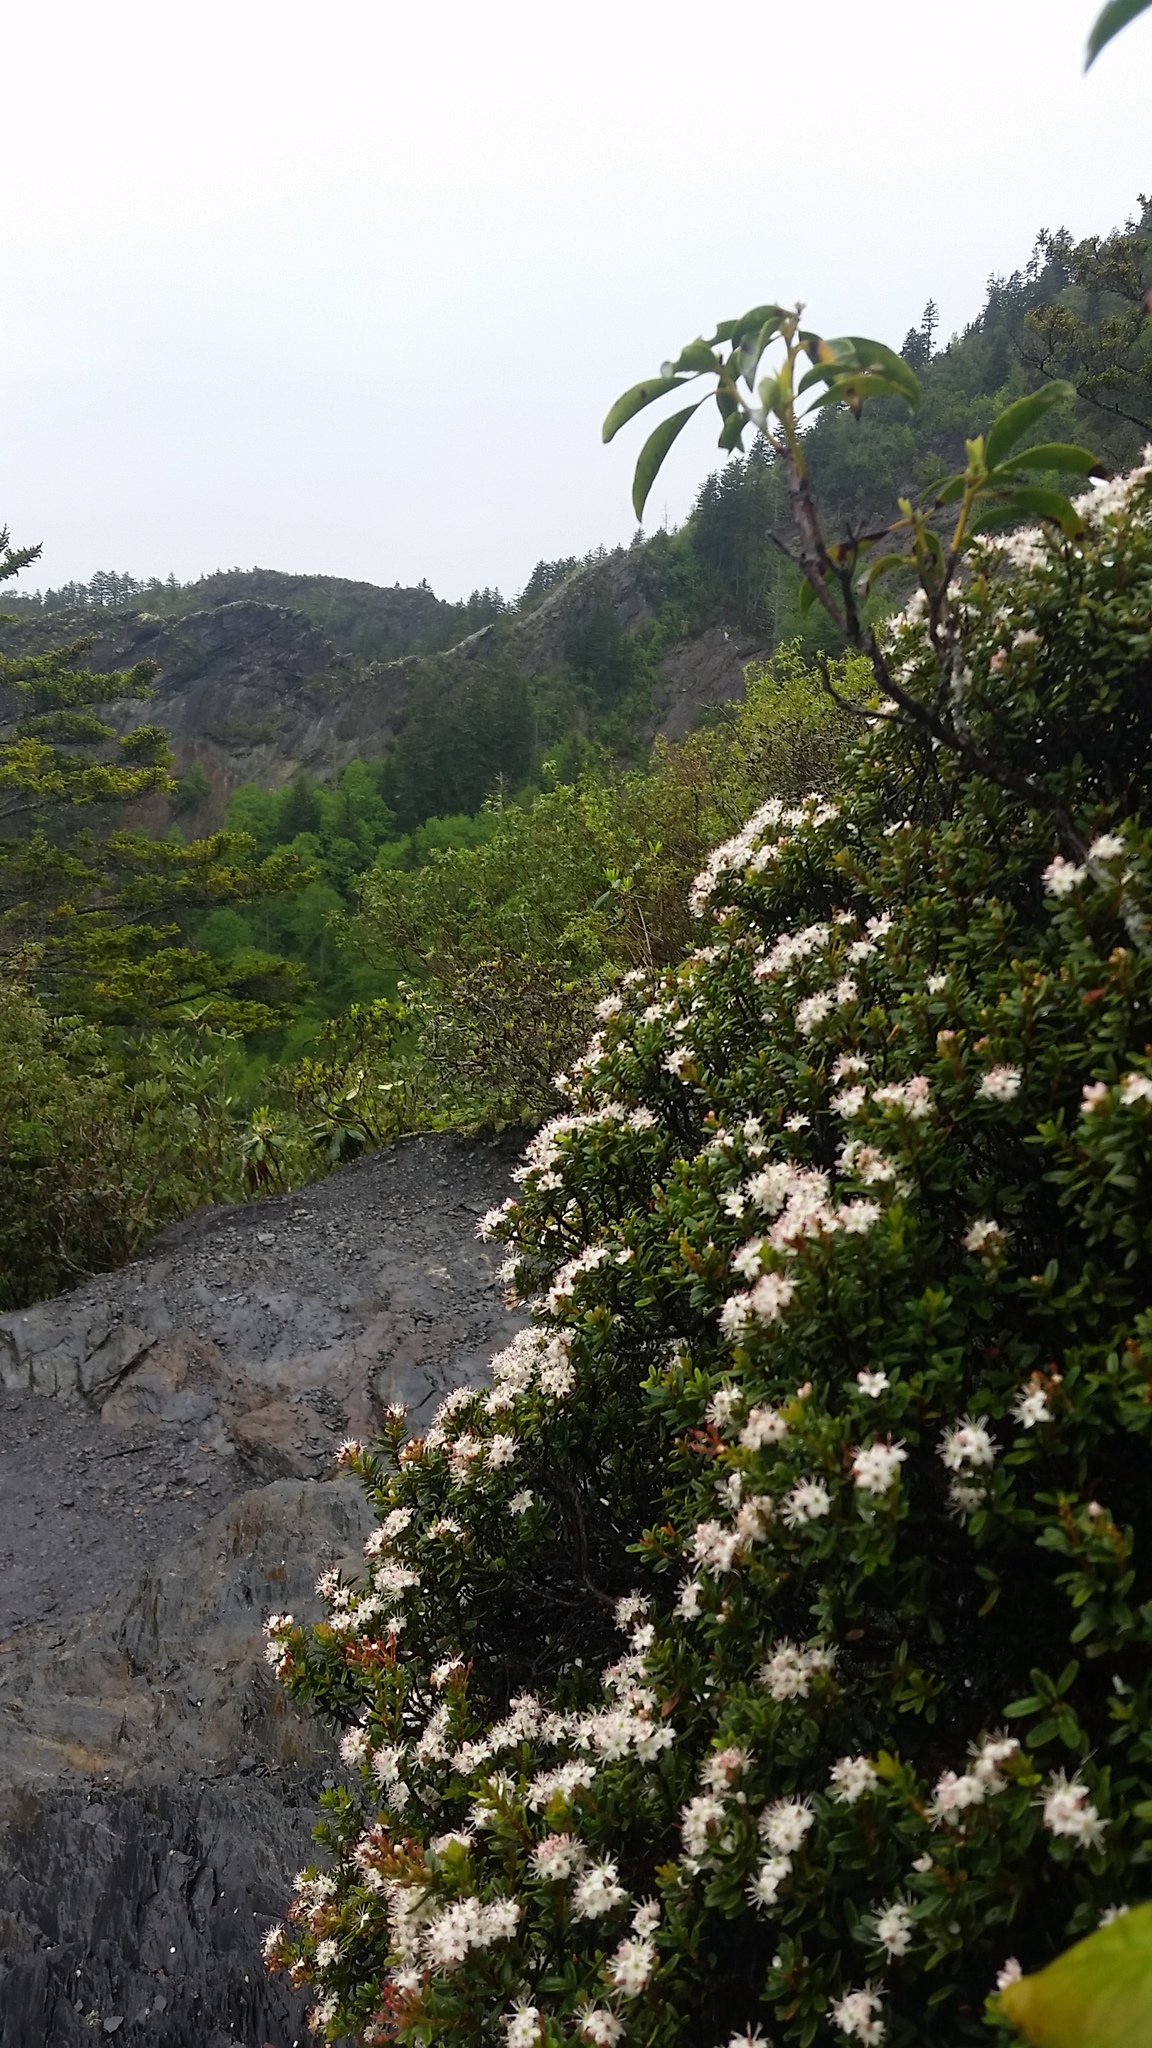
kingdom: Plantae
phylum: Tracheophyta
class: Magnoliopsida
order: Ericales
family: Ericaceae
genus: Kalmia
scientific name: Kalmia buxifolia
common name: Sandmyrtle
